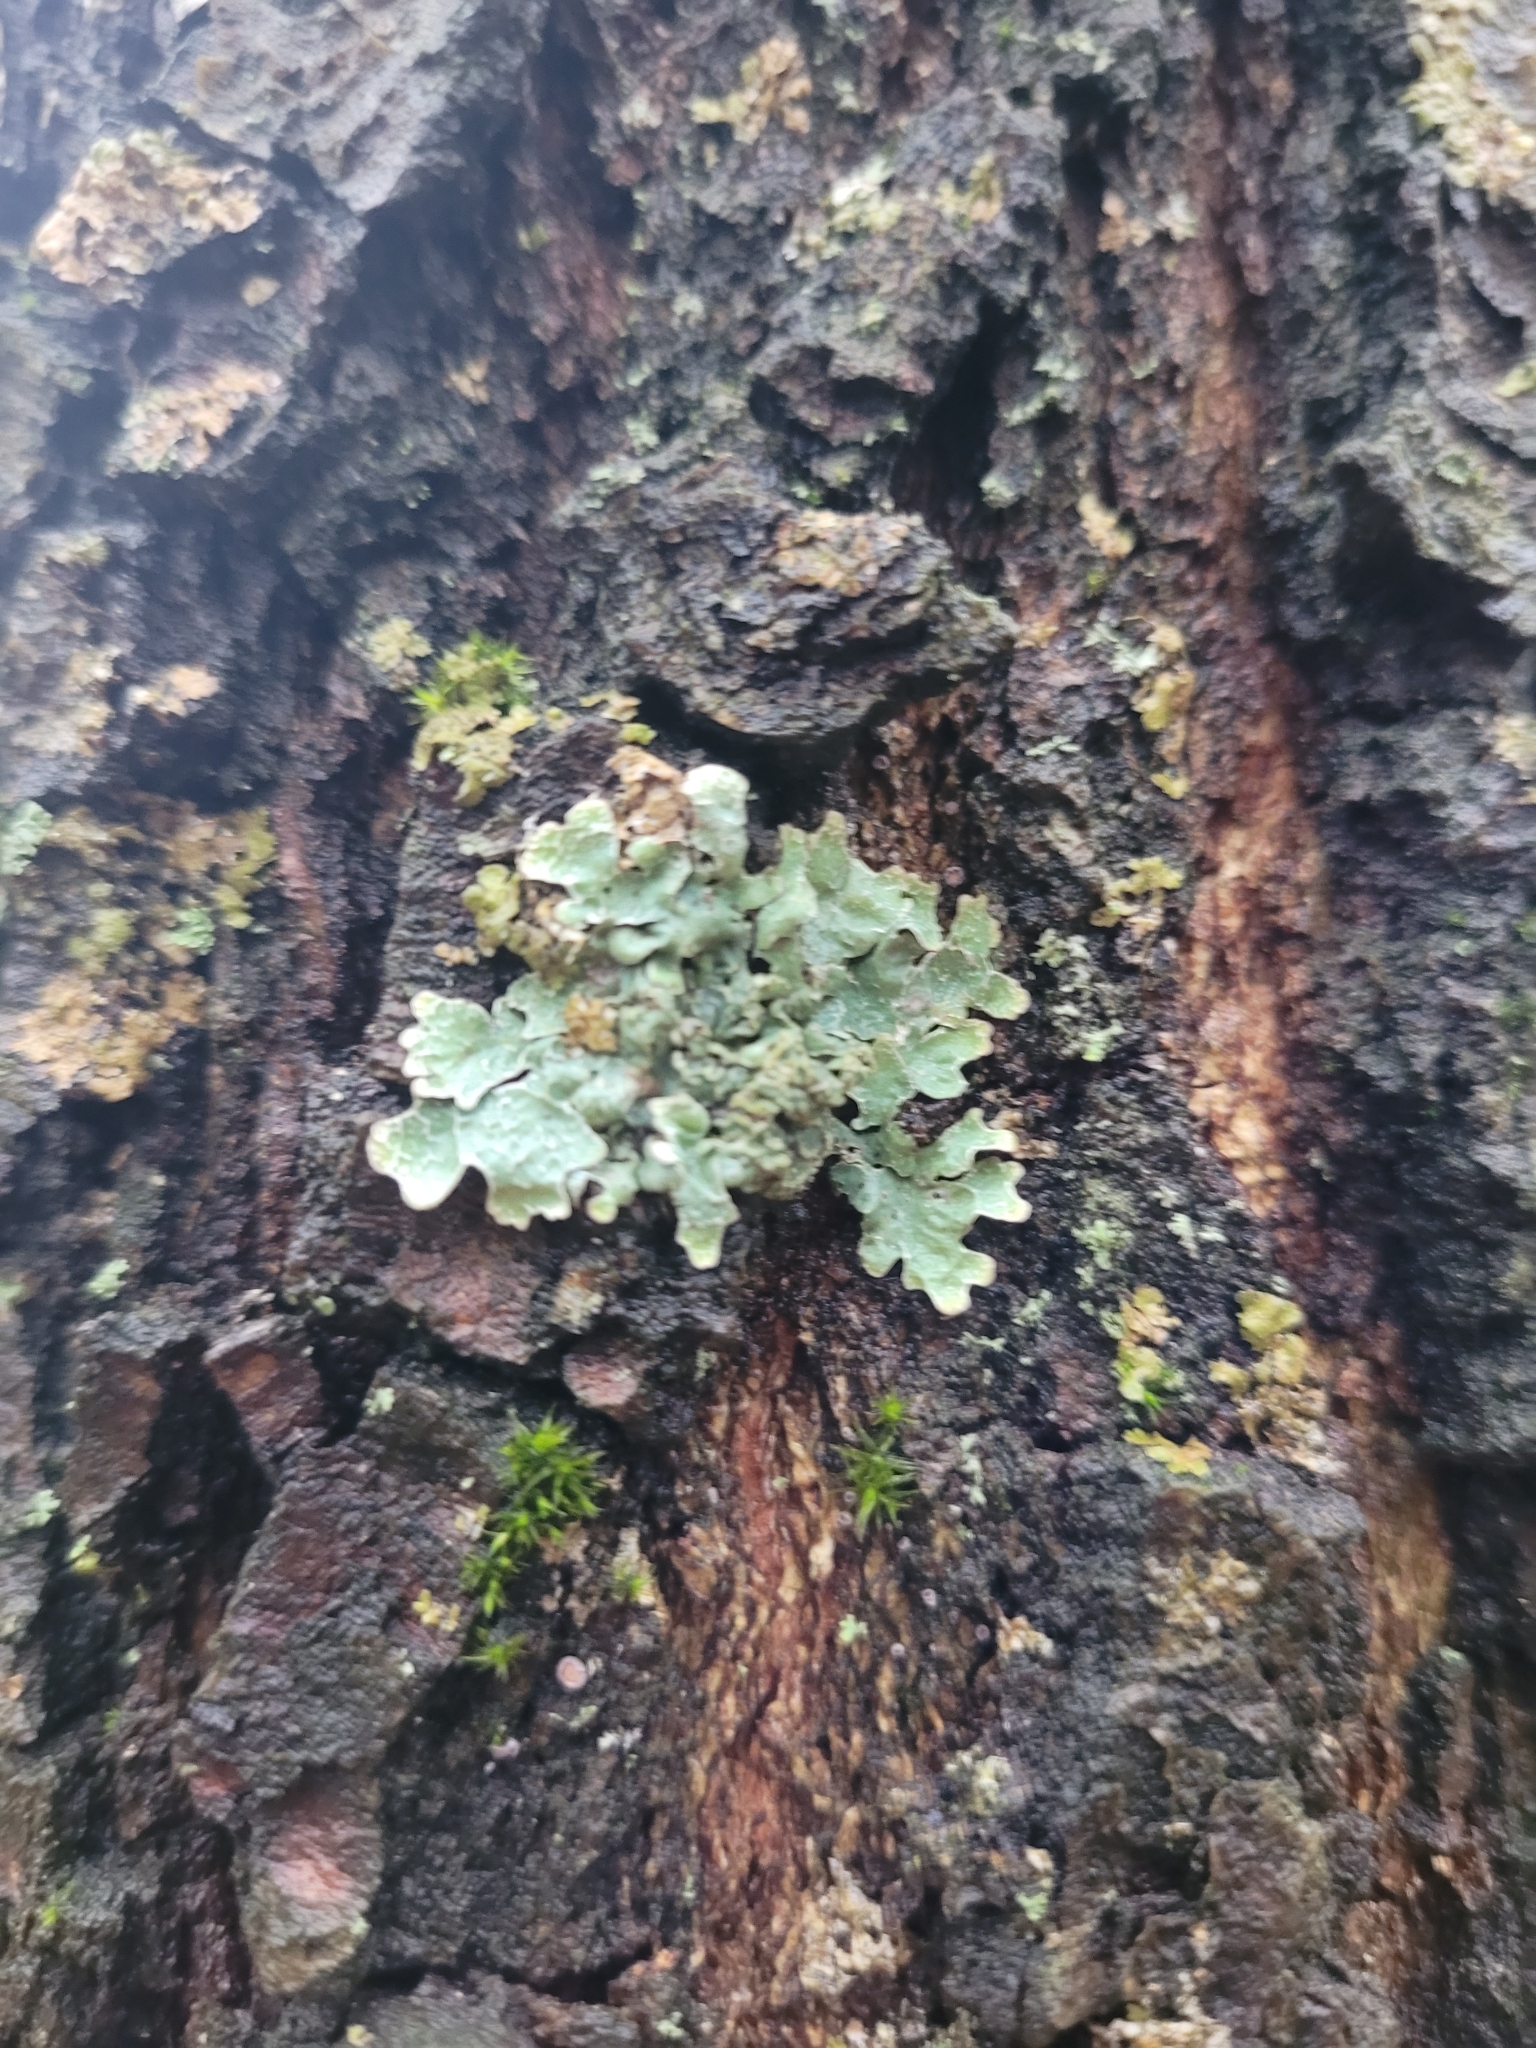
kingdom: Fungi
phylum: Ascomycota
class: Lecanoromycetes
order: Lecanorales
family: Parmeliaceae
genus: Parmelia
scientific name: Parmelia sulcata
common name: Netted shield lichen
